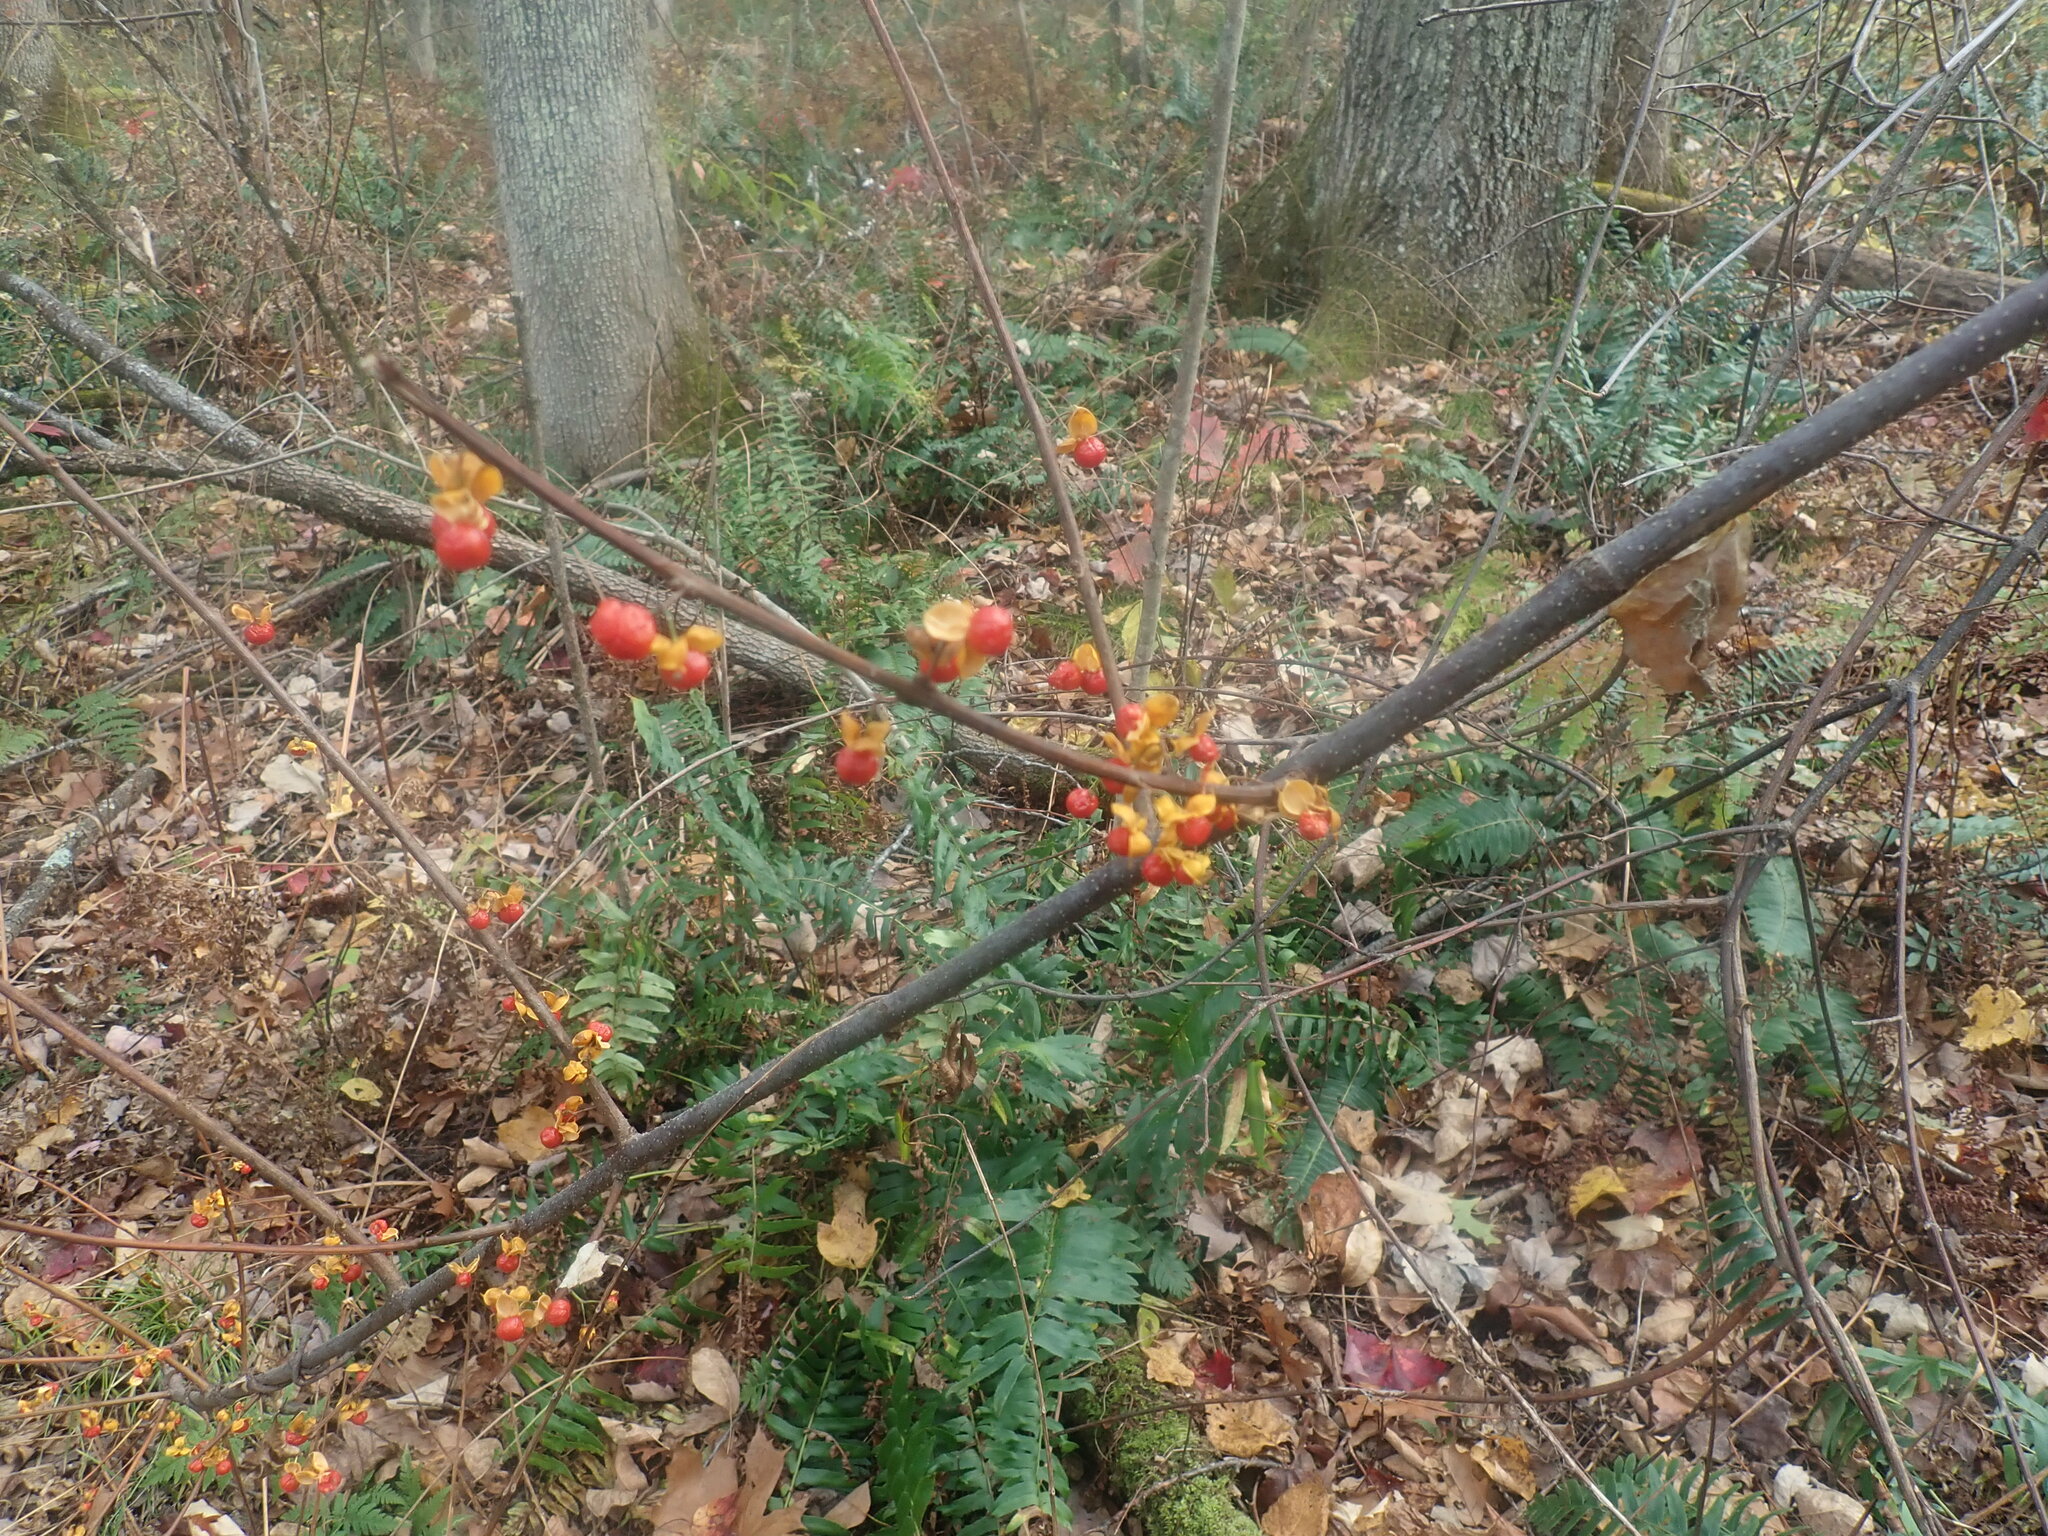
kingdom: Plantae
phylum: Tracheophyta
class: Magnoliopsida
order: Celastrales
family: Celastraceae
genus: Celastrus
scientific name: Celastrus orbiculatus
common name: Oriental bittersweet
